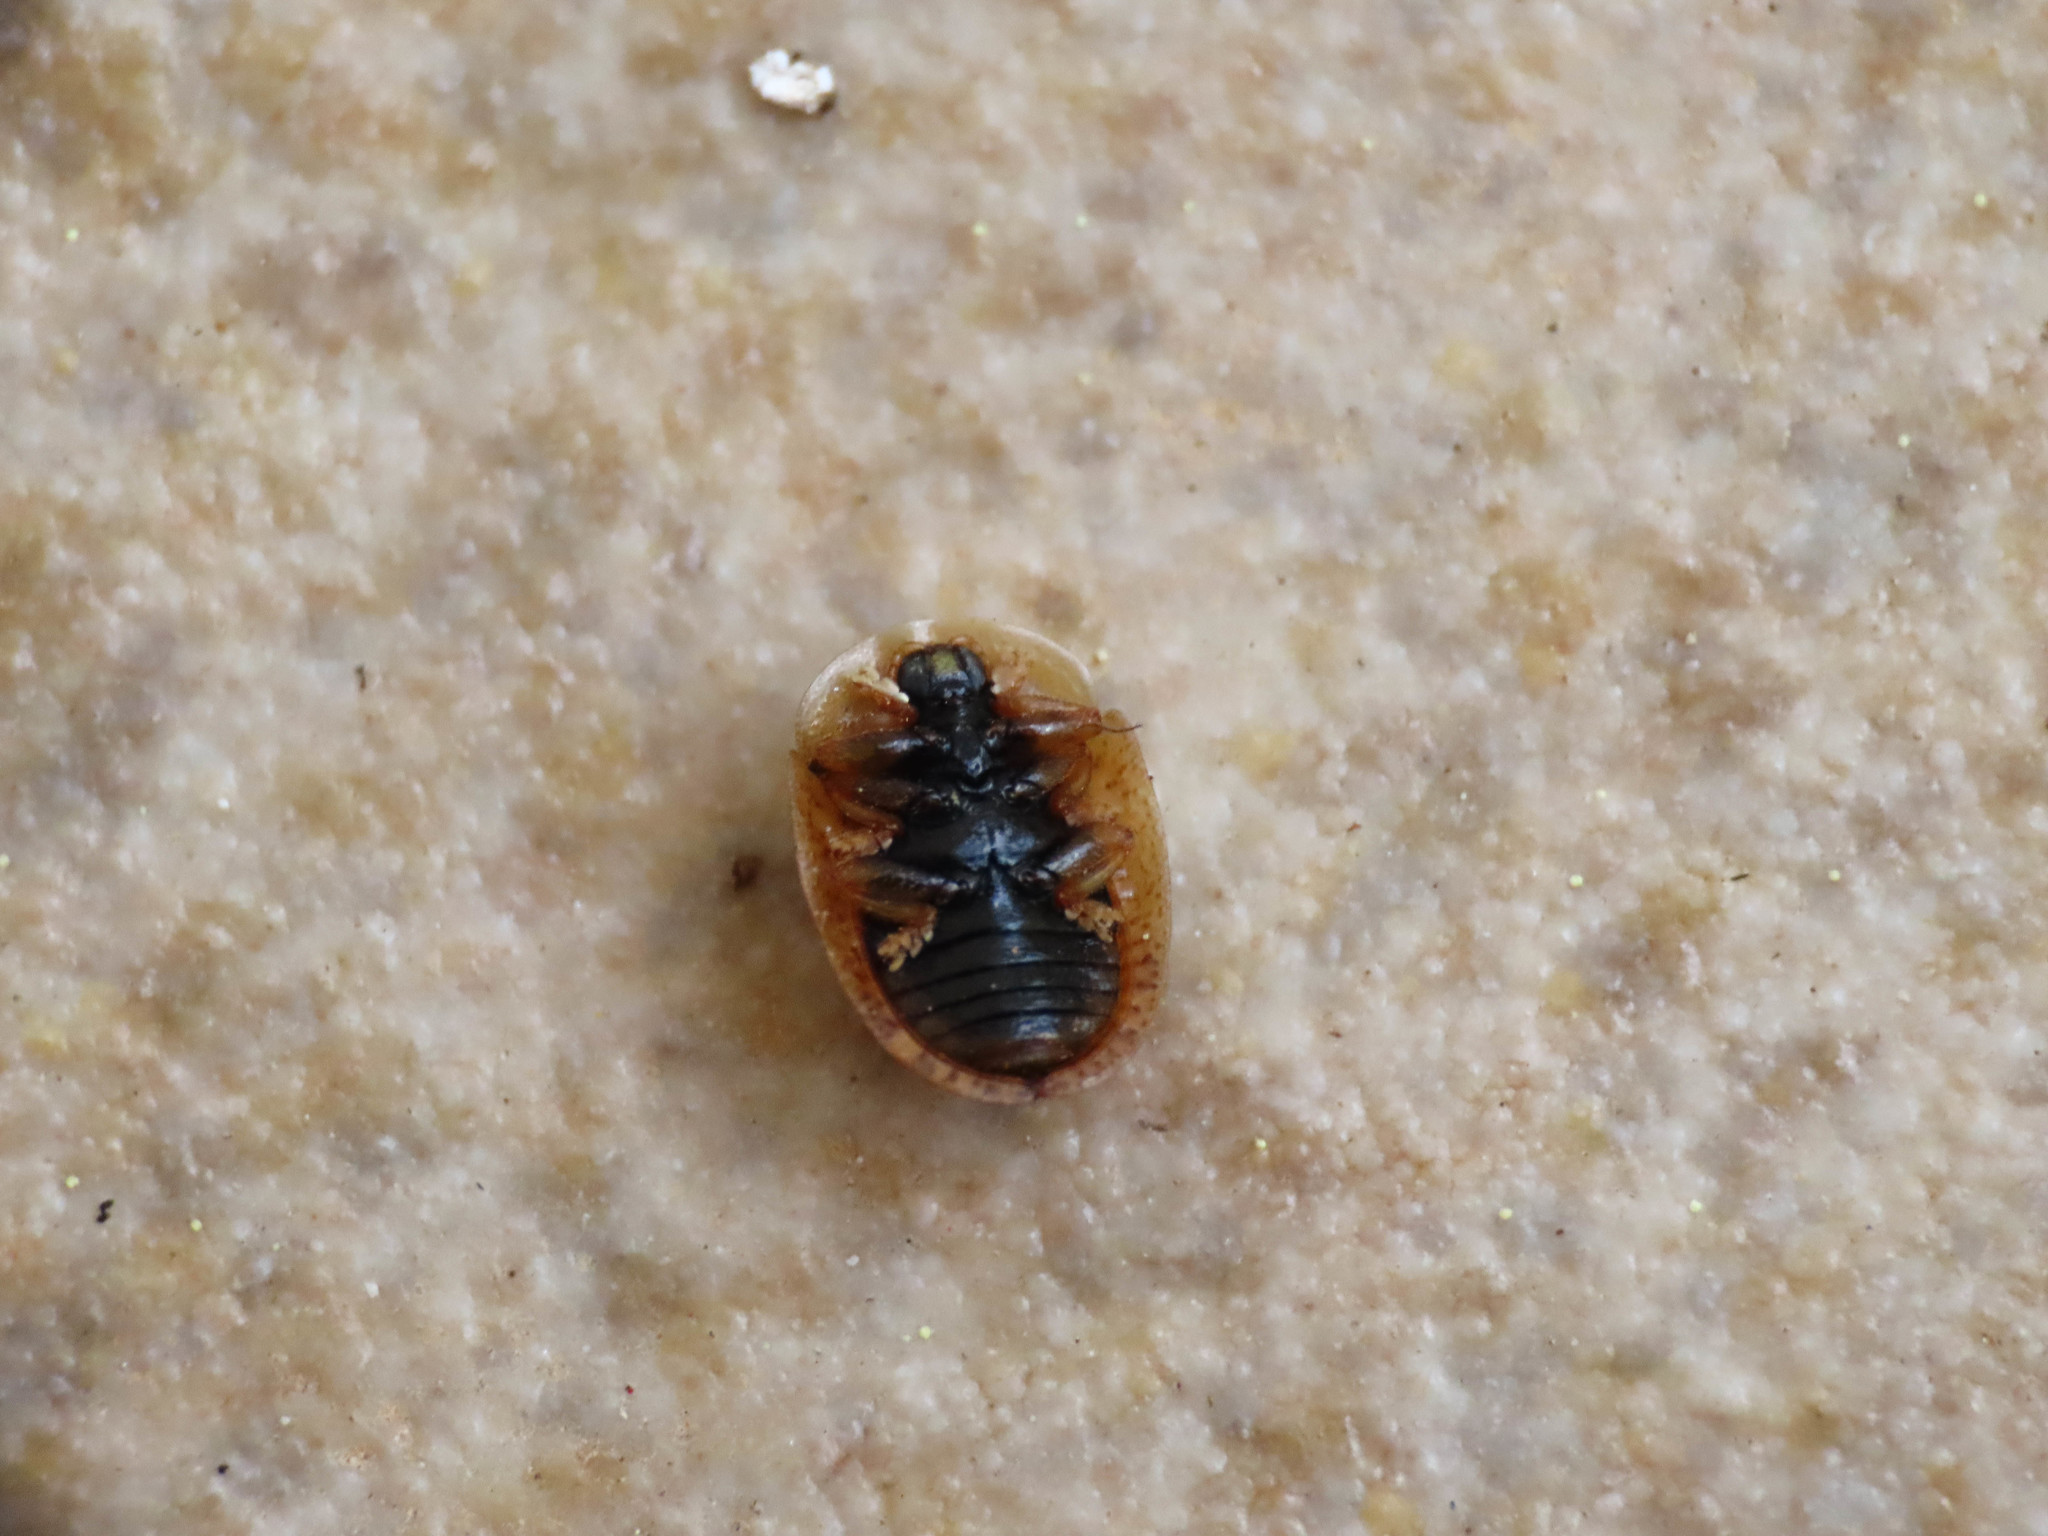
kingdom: Animalia
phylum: Arthropoda
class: Insecta
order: Coleoptera
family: Chrysomelidae
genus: Hypocassida
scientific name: Hypocassida subferruginea
